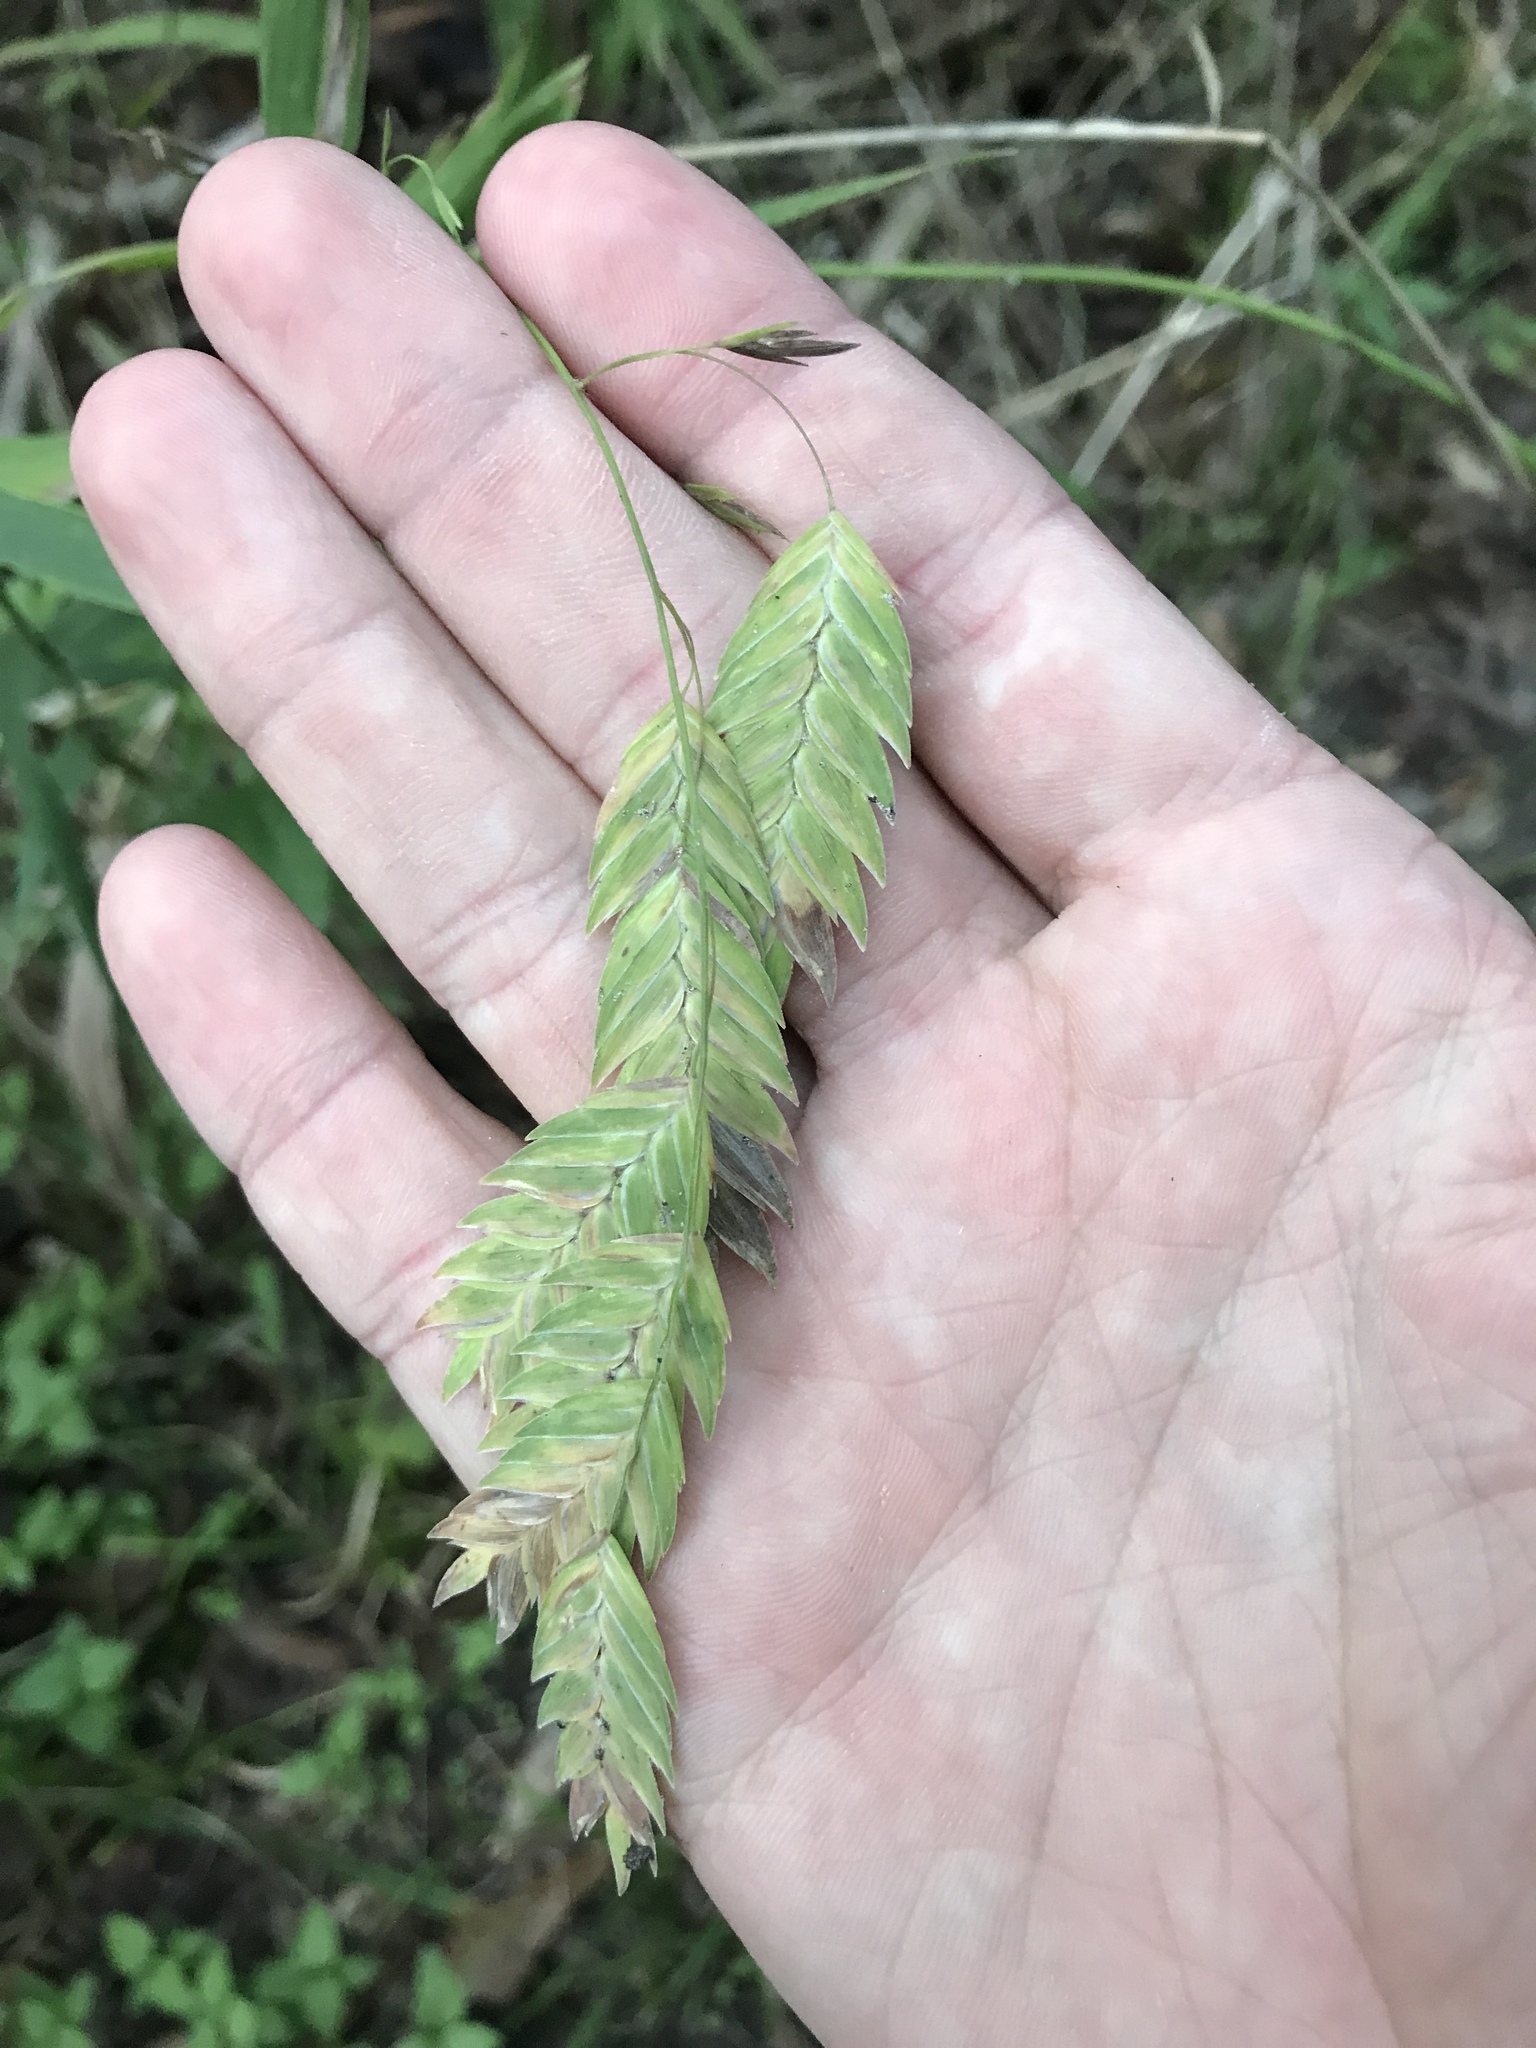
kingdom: Plantae
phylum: Tracheophyta
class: Liliopsida
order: Poales
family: Poaceae
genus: Chasmanthium
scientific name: Chasmanthium latifolium
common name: Broad-leaved chasmanthium
